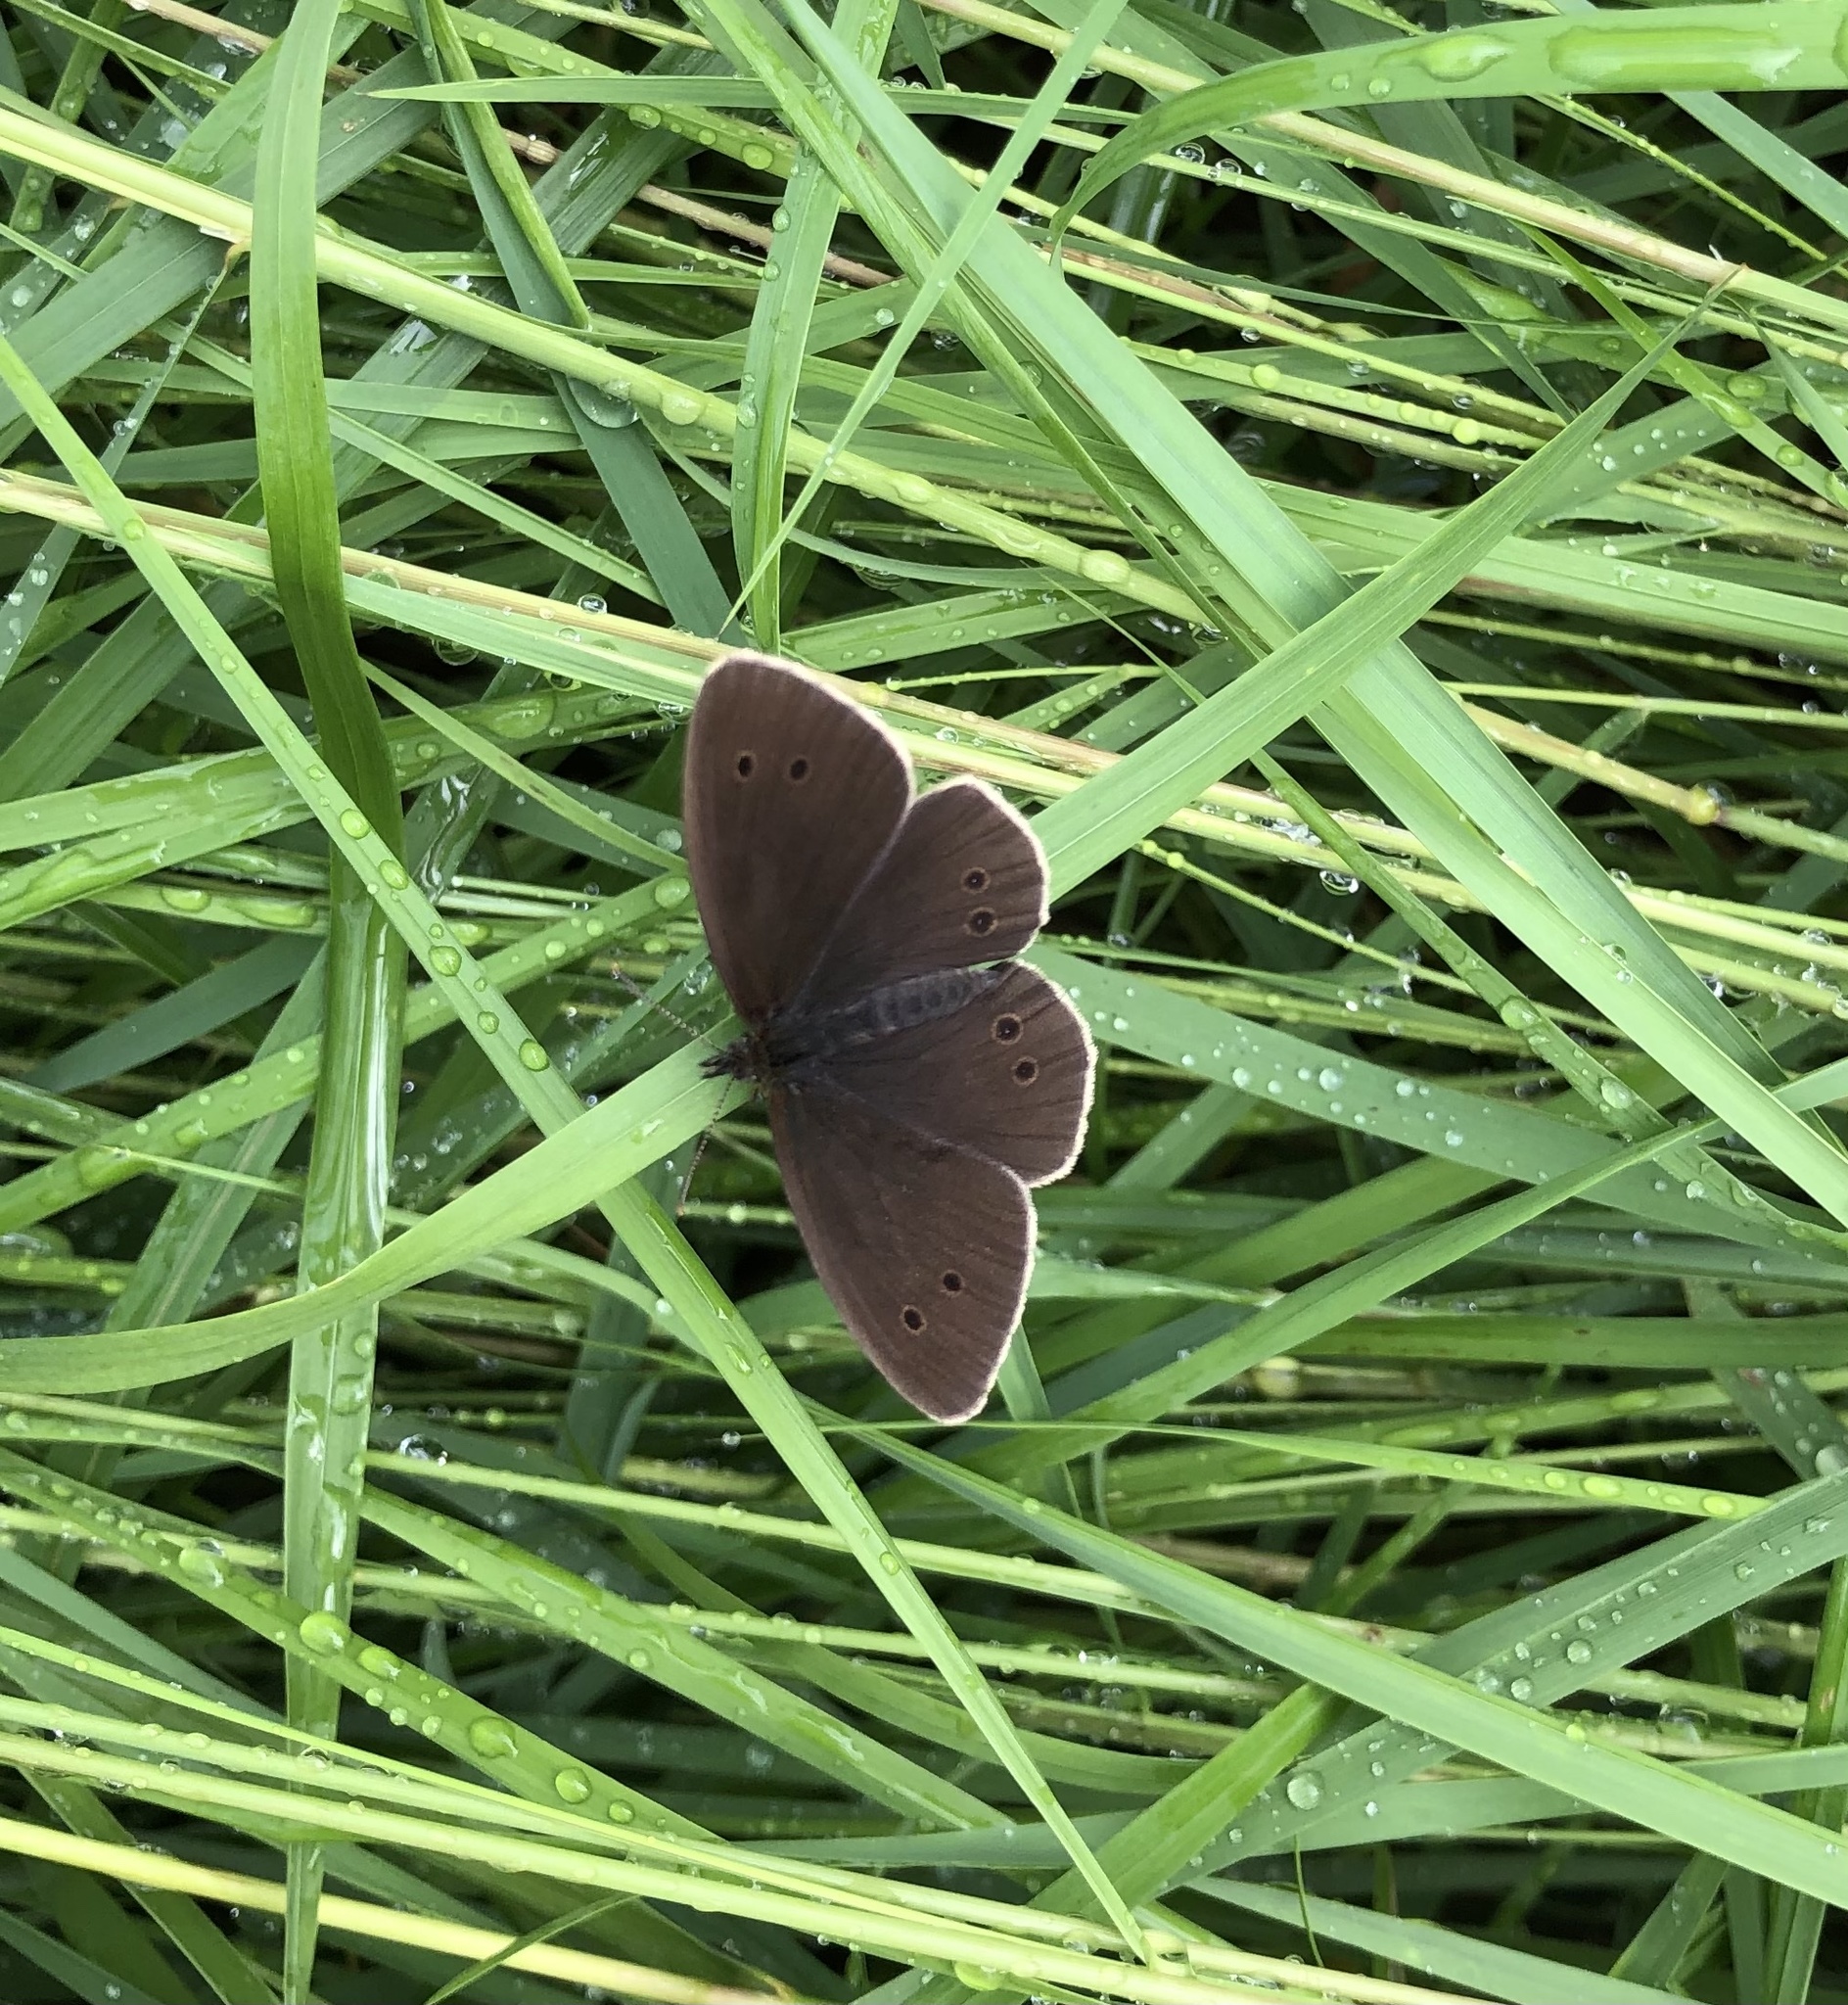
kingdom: Animalia
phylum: Arthropoda
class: Insecta
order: Lepidoptera
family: Nymphalidae
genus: Aphantopus
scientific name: Aphantopus hyperantus
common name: Ringlet
